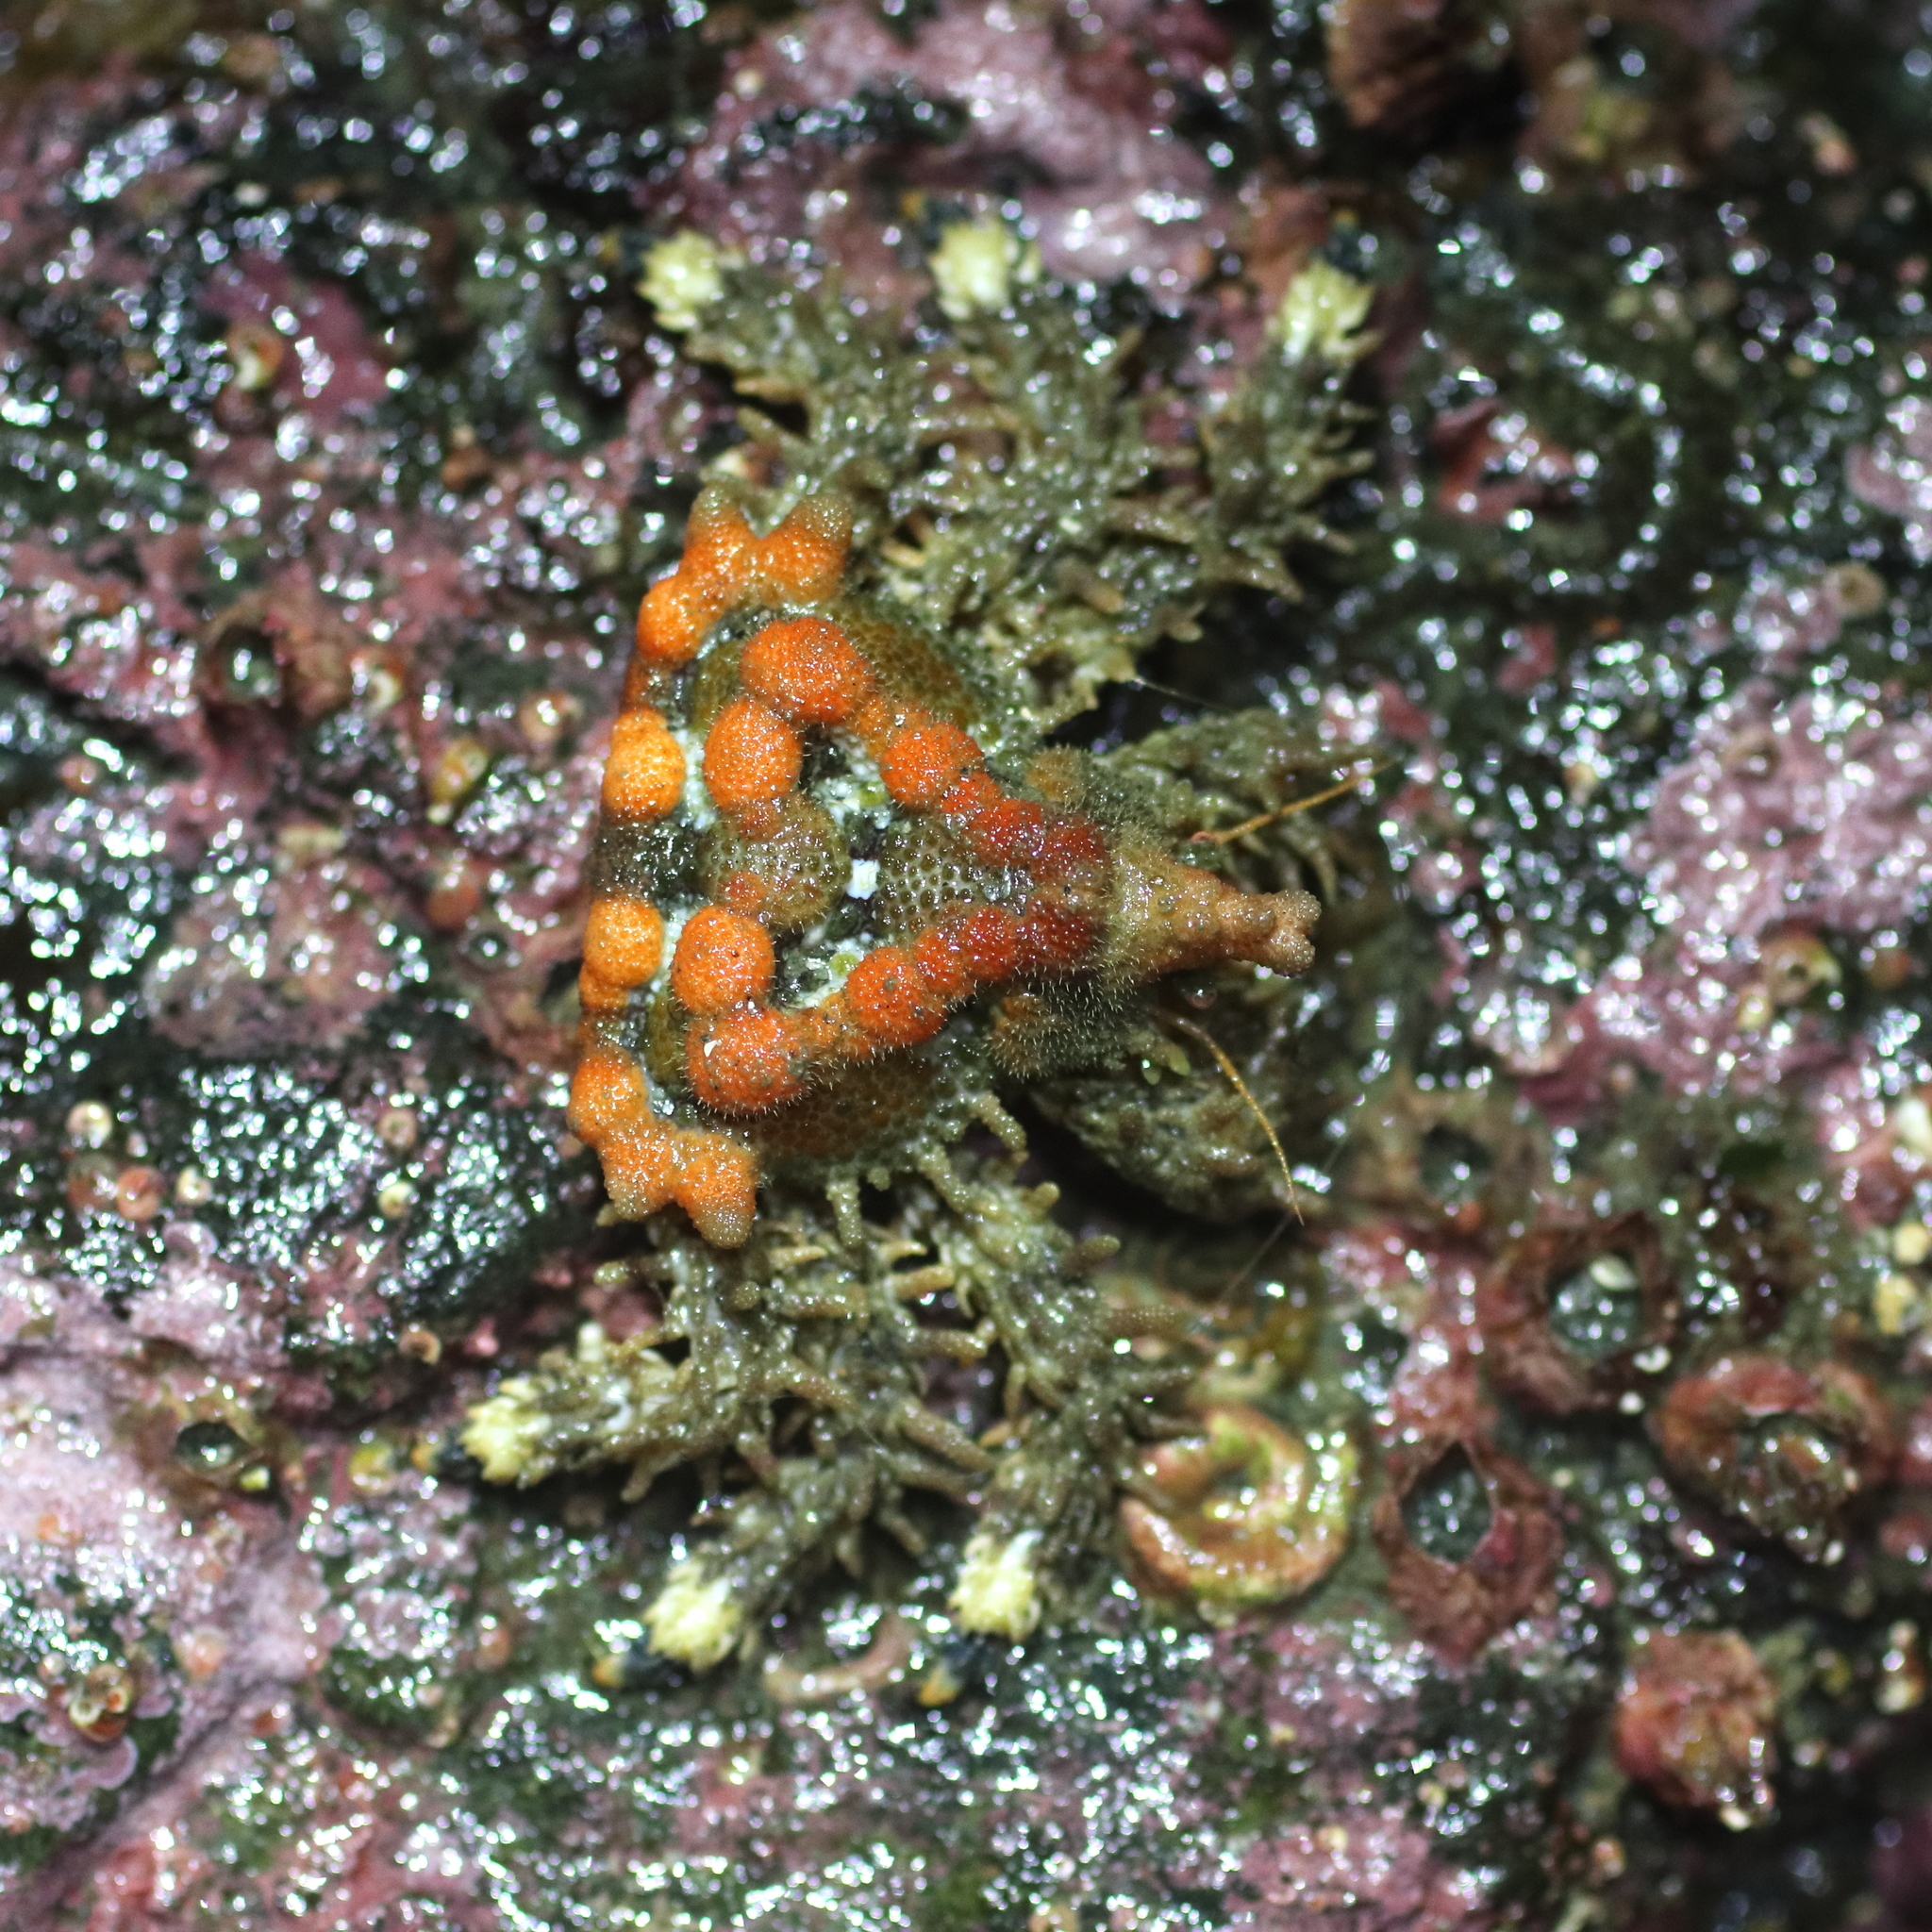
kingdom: Animalia
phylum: Arthropoda
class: Malacostraca
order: Decapoda
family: Lithodidae
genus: Phyllolithodes
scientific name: Phyllolithodes papillosus
